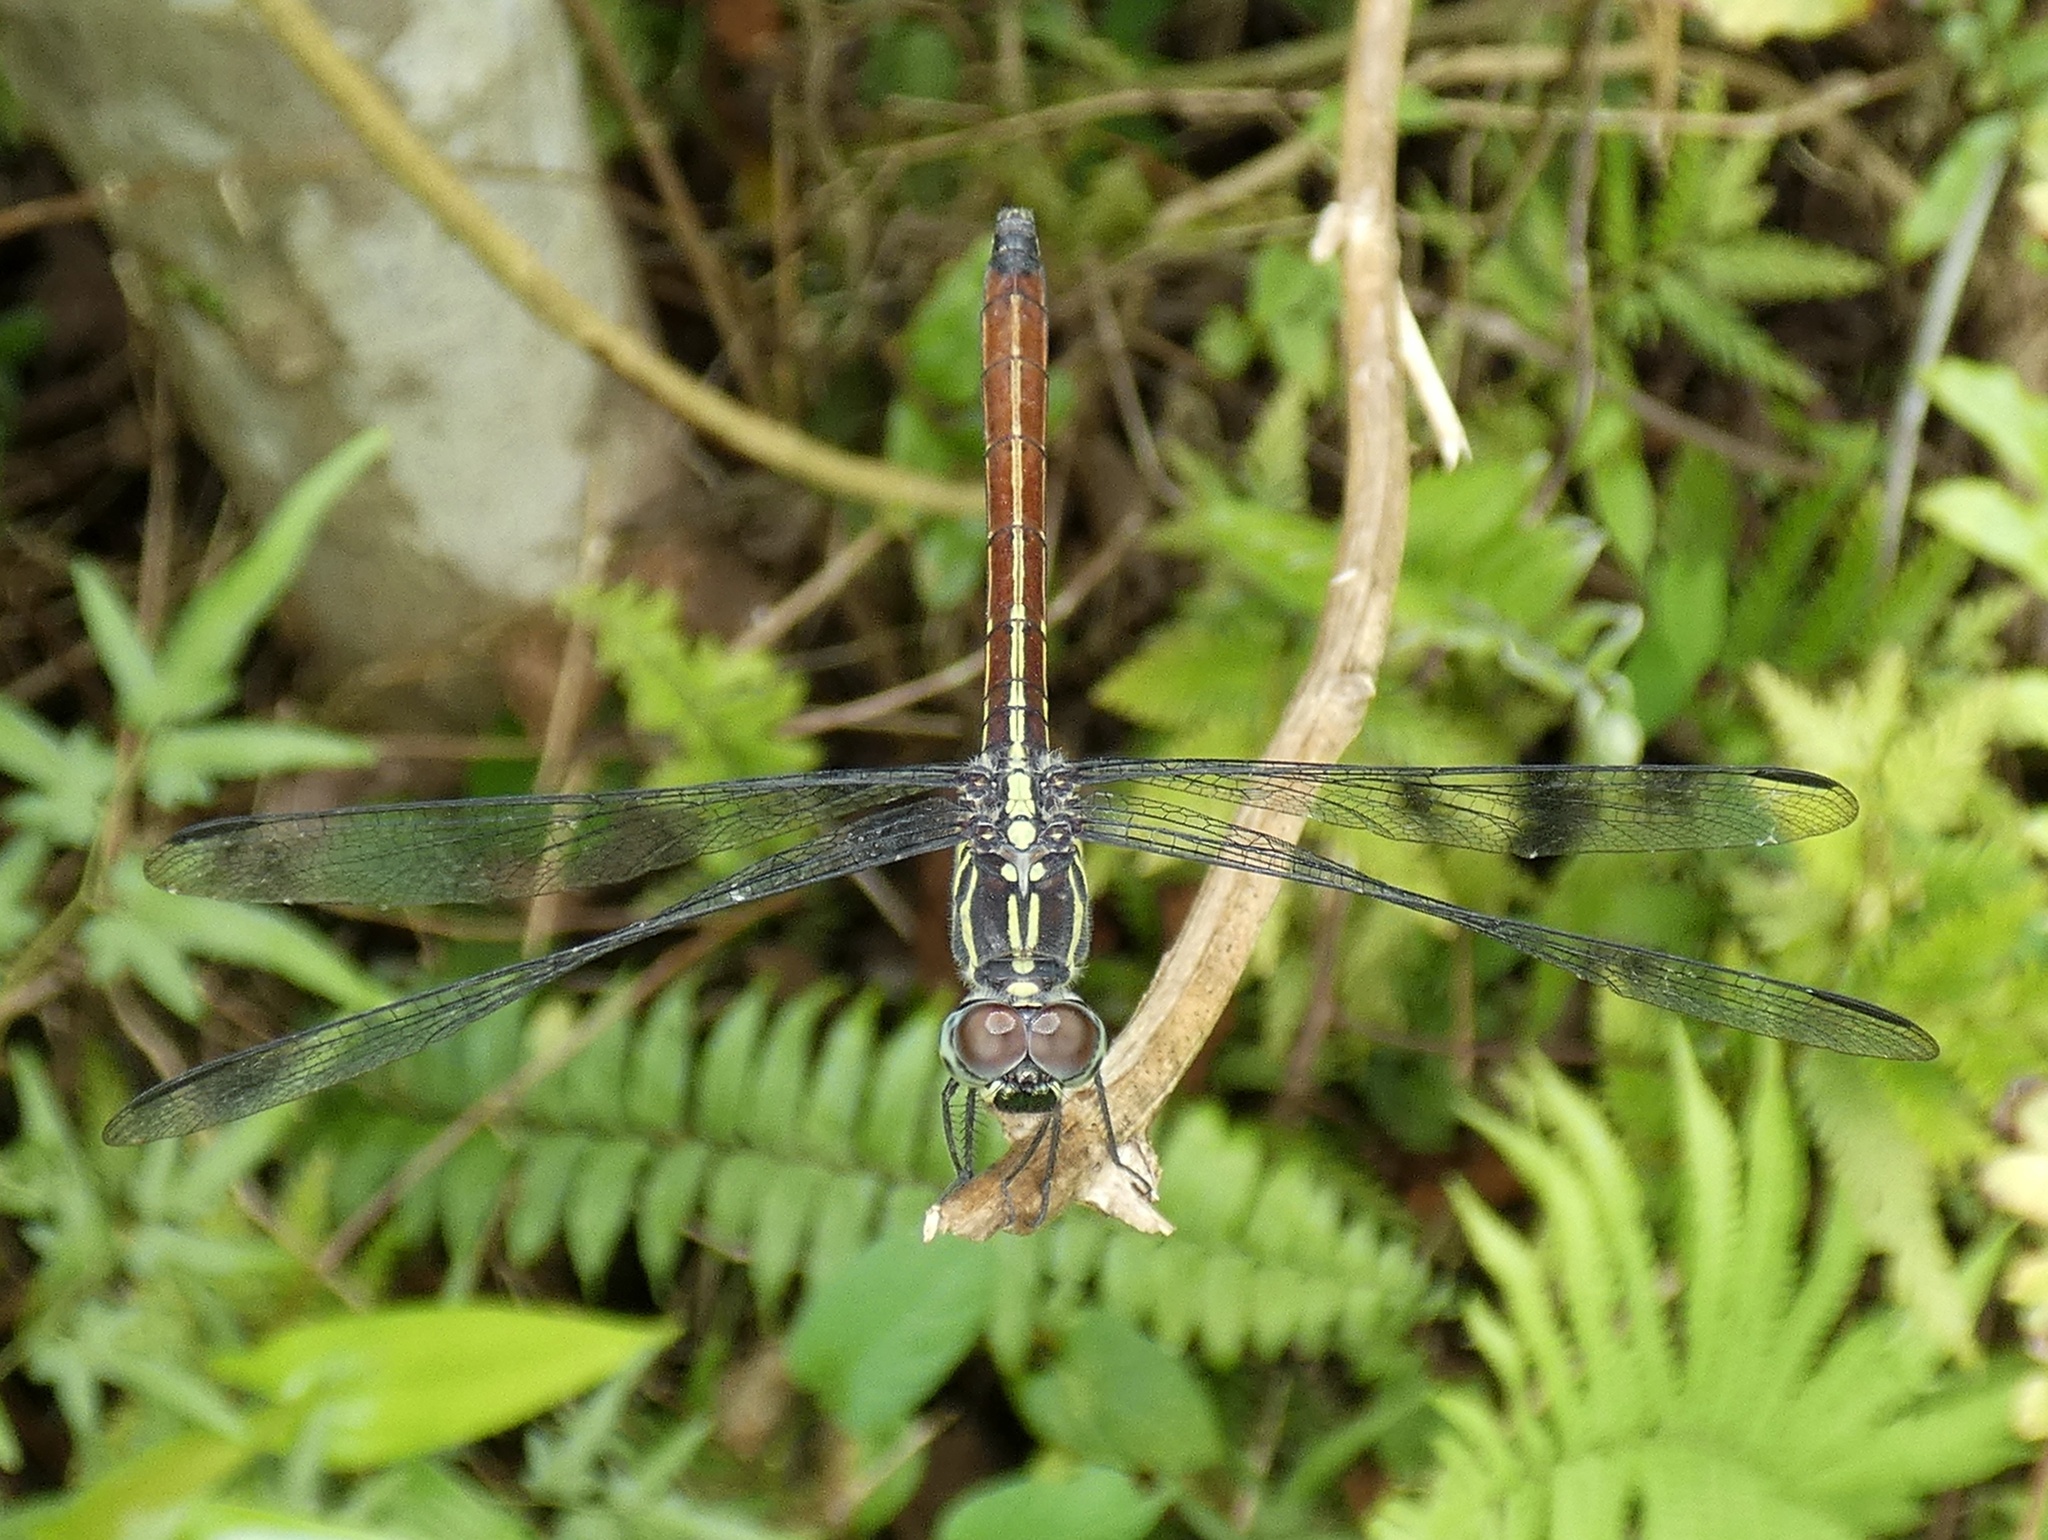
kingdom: Animalia
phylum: Arthropoda
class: Insecta
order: Odonata
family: Libellulidae
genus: Lathrecista
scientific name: Lathrecista asiatica
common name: Scarlet grenadier
